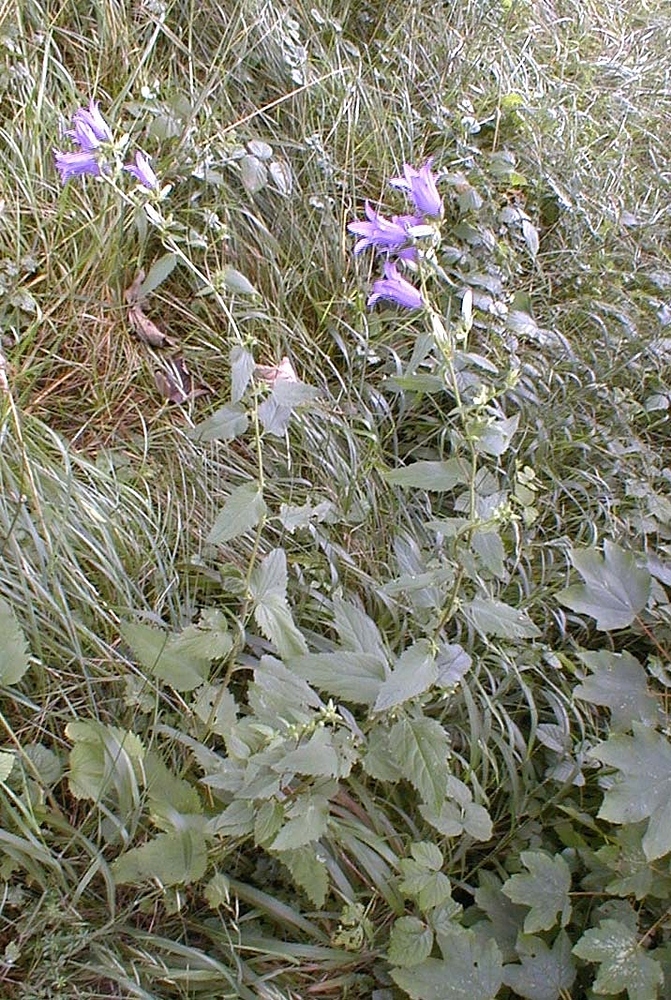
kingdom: Plantae
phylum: Tracheophyta
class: Magnoliopsida
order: Asterales
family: Campanulaceae
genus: Campanula
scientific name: Campanula trachelium
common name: Nettle-leaved bellflower
